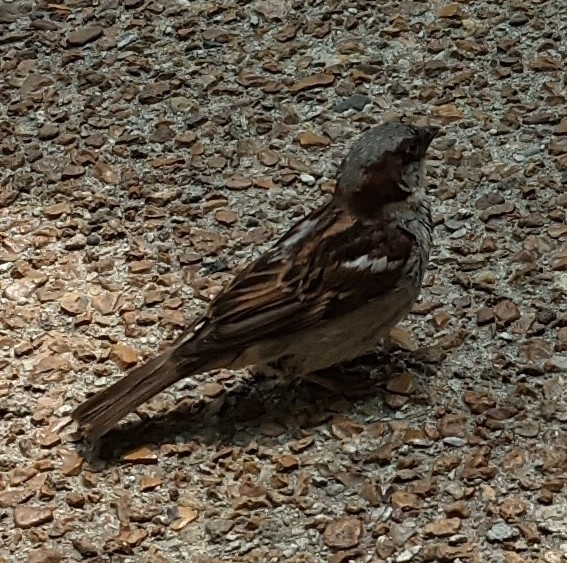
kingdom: Animalia
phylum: Chordata
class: Aves
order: Passeriformes
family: Passeridae
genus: Passer
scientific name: Passer domesticus
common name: House sparrow
